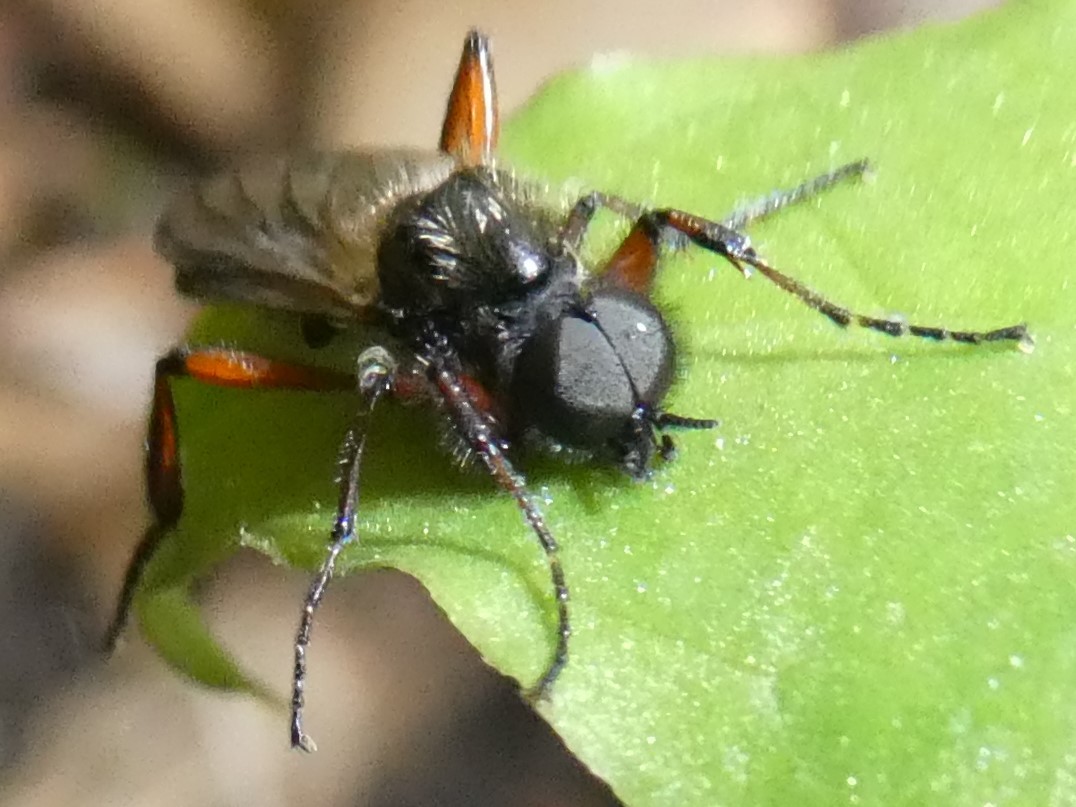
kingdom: Animalia
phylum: Arthropoda
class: Insecta
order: Diptera
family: Bibionidae
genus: Bibio
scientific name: Bibio articulatus
